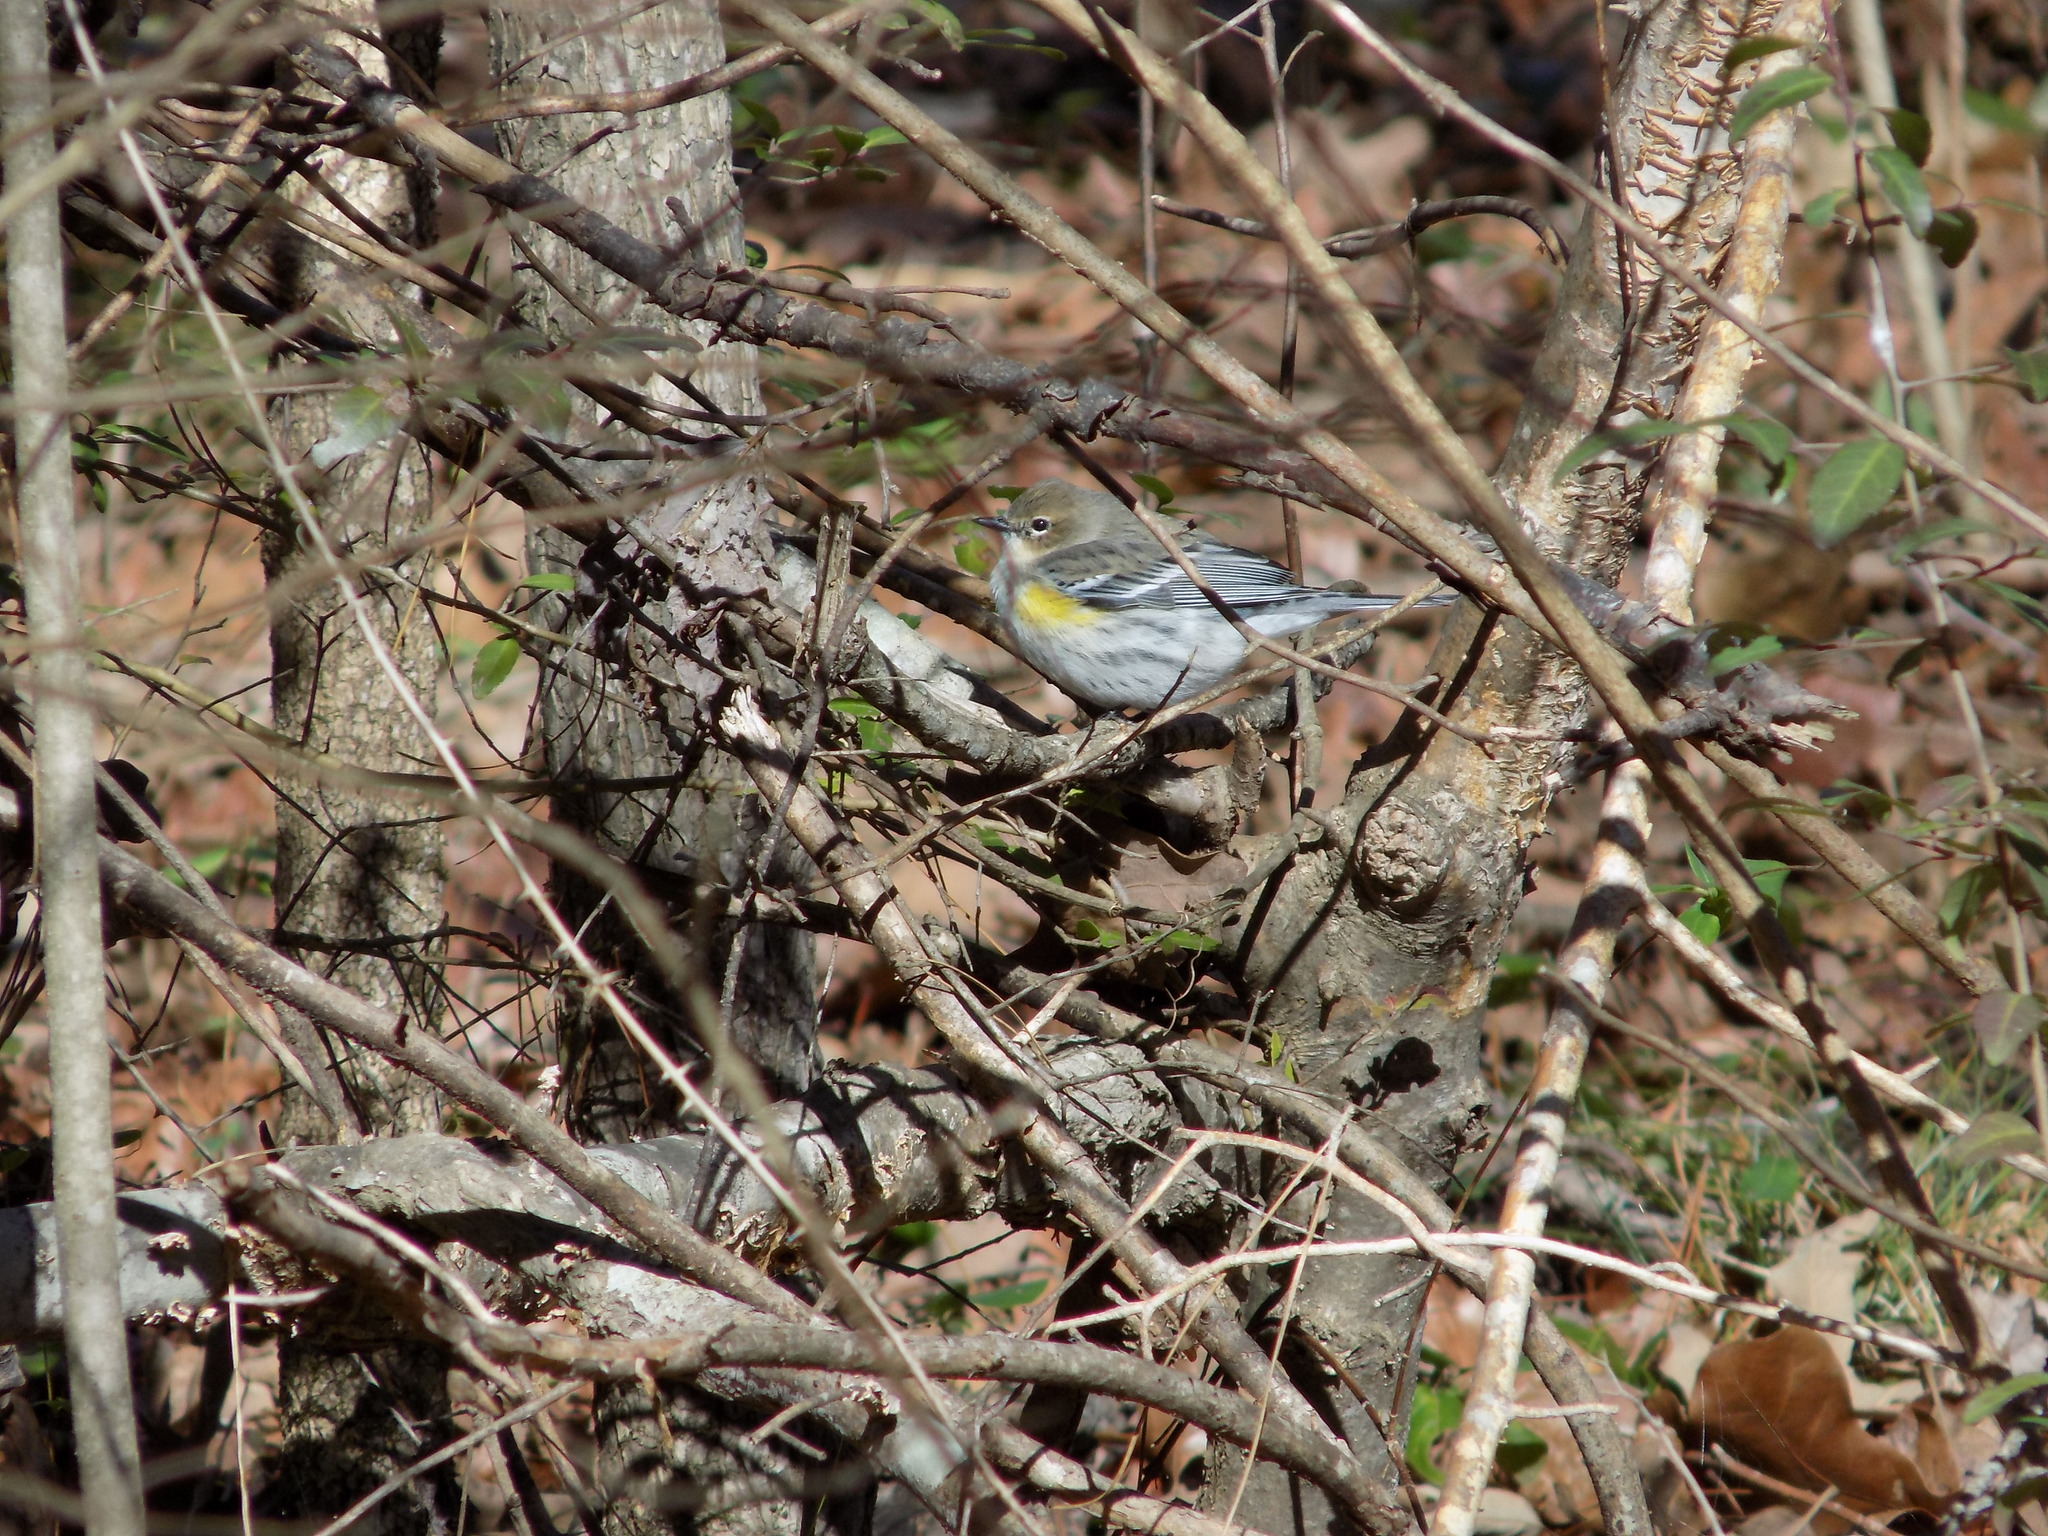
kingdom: Animalia
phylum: Chordata
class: Aves
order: Passeriformes
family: Parulidae
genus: Setophaga
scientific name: Setophaga coronata
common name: Myrtle warbler
